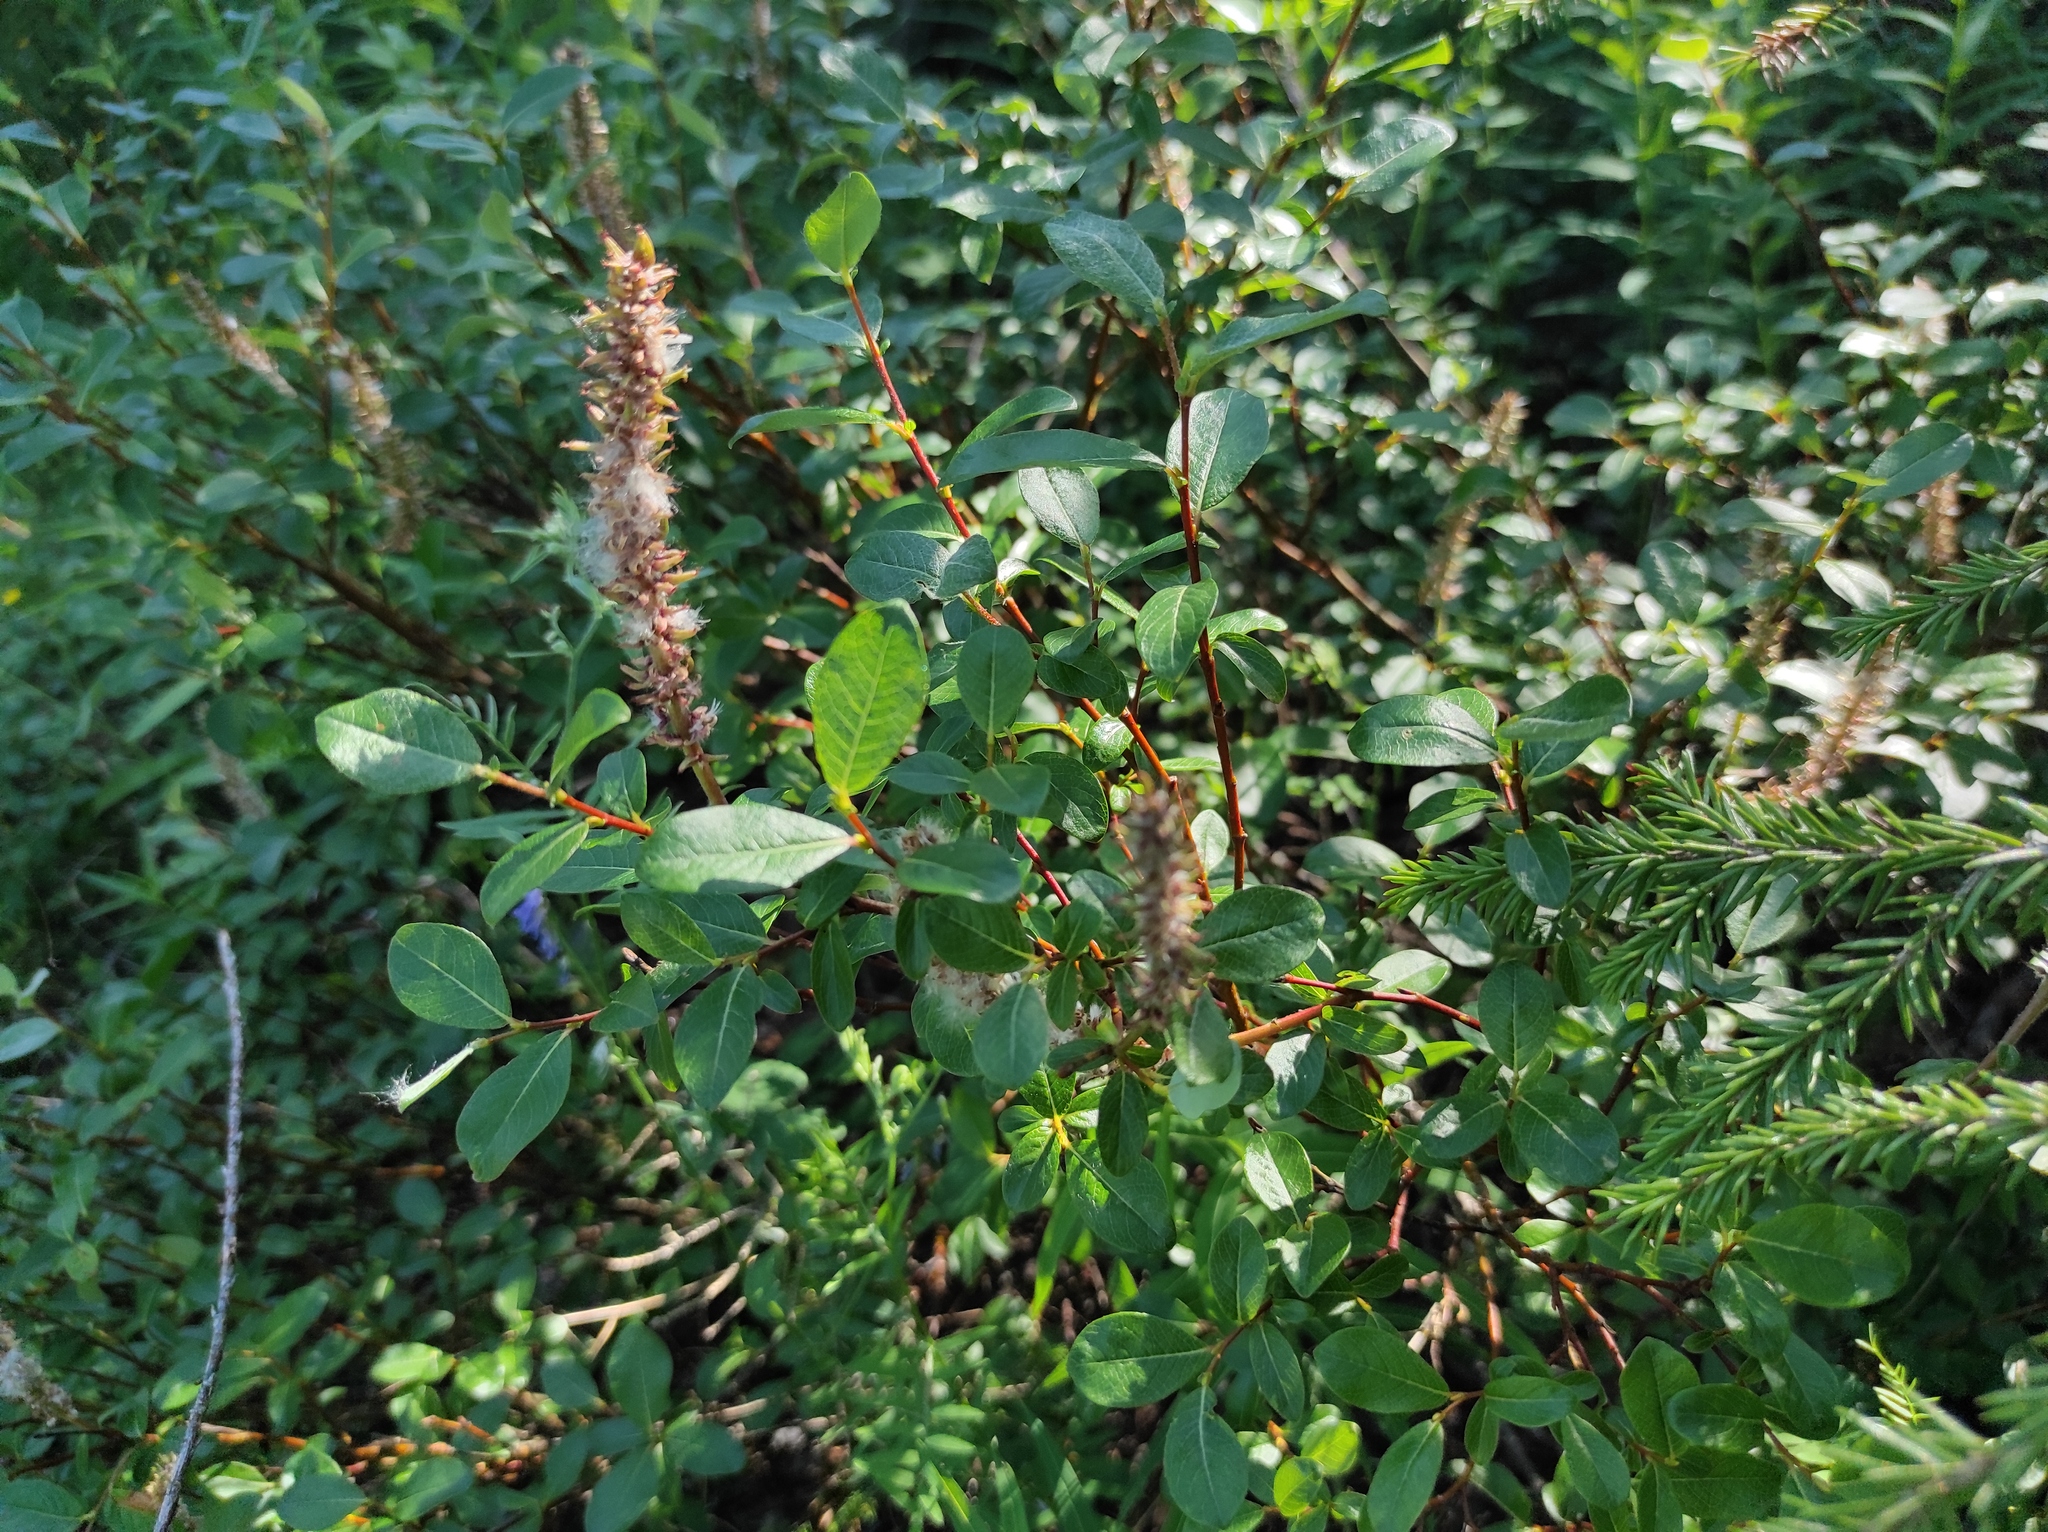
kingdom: Plantae
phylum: Tracheophyta
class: Pinopsida
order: Pinales
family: Pinaceae
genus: Picea
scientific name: Picea obovata
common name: Siberian spruce
